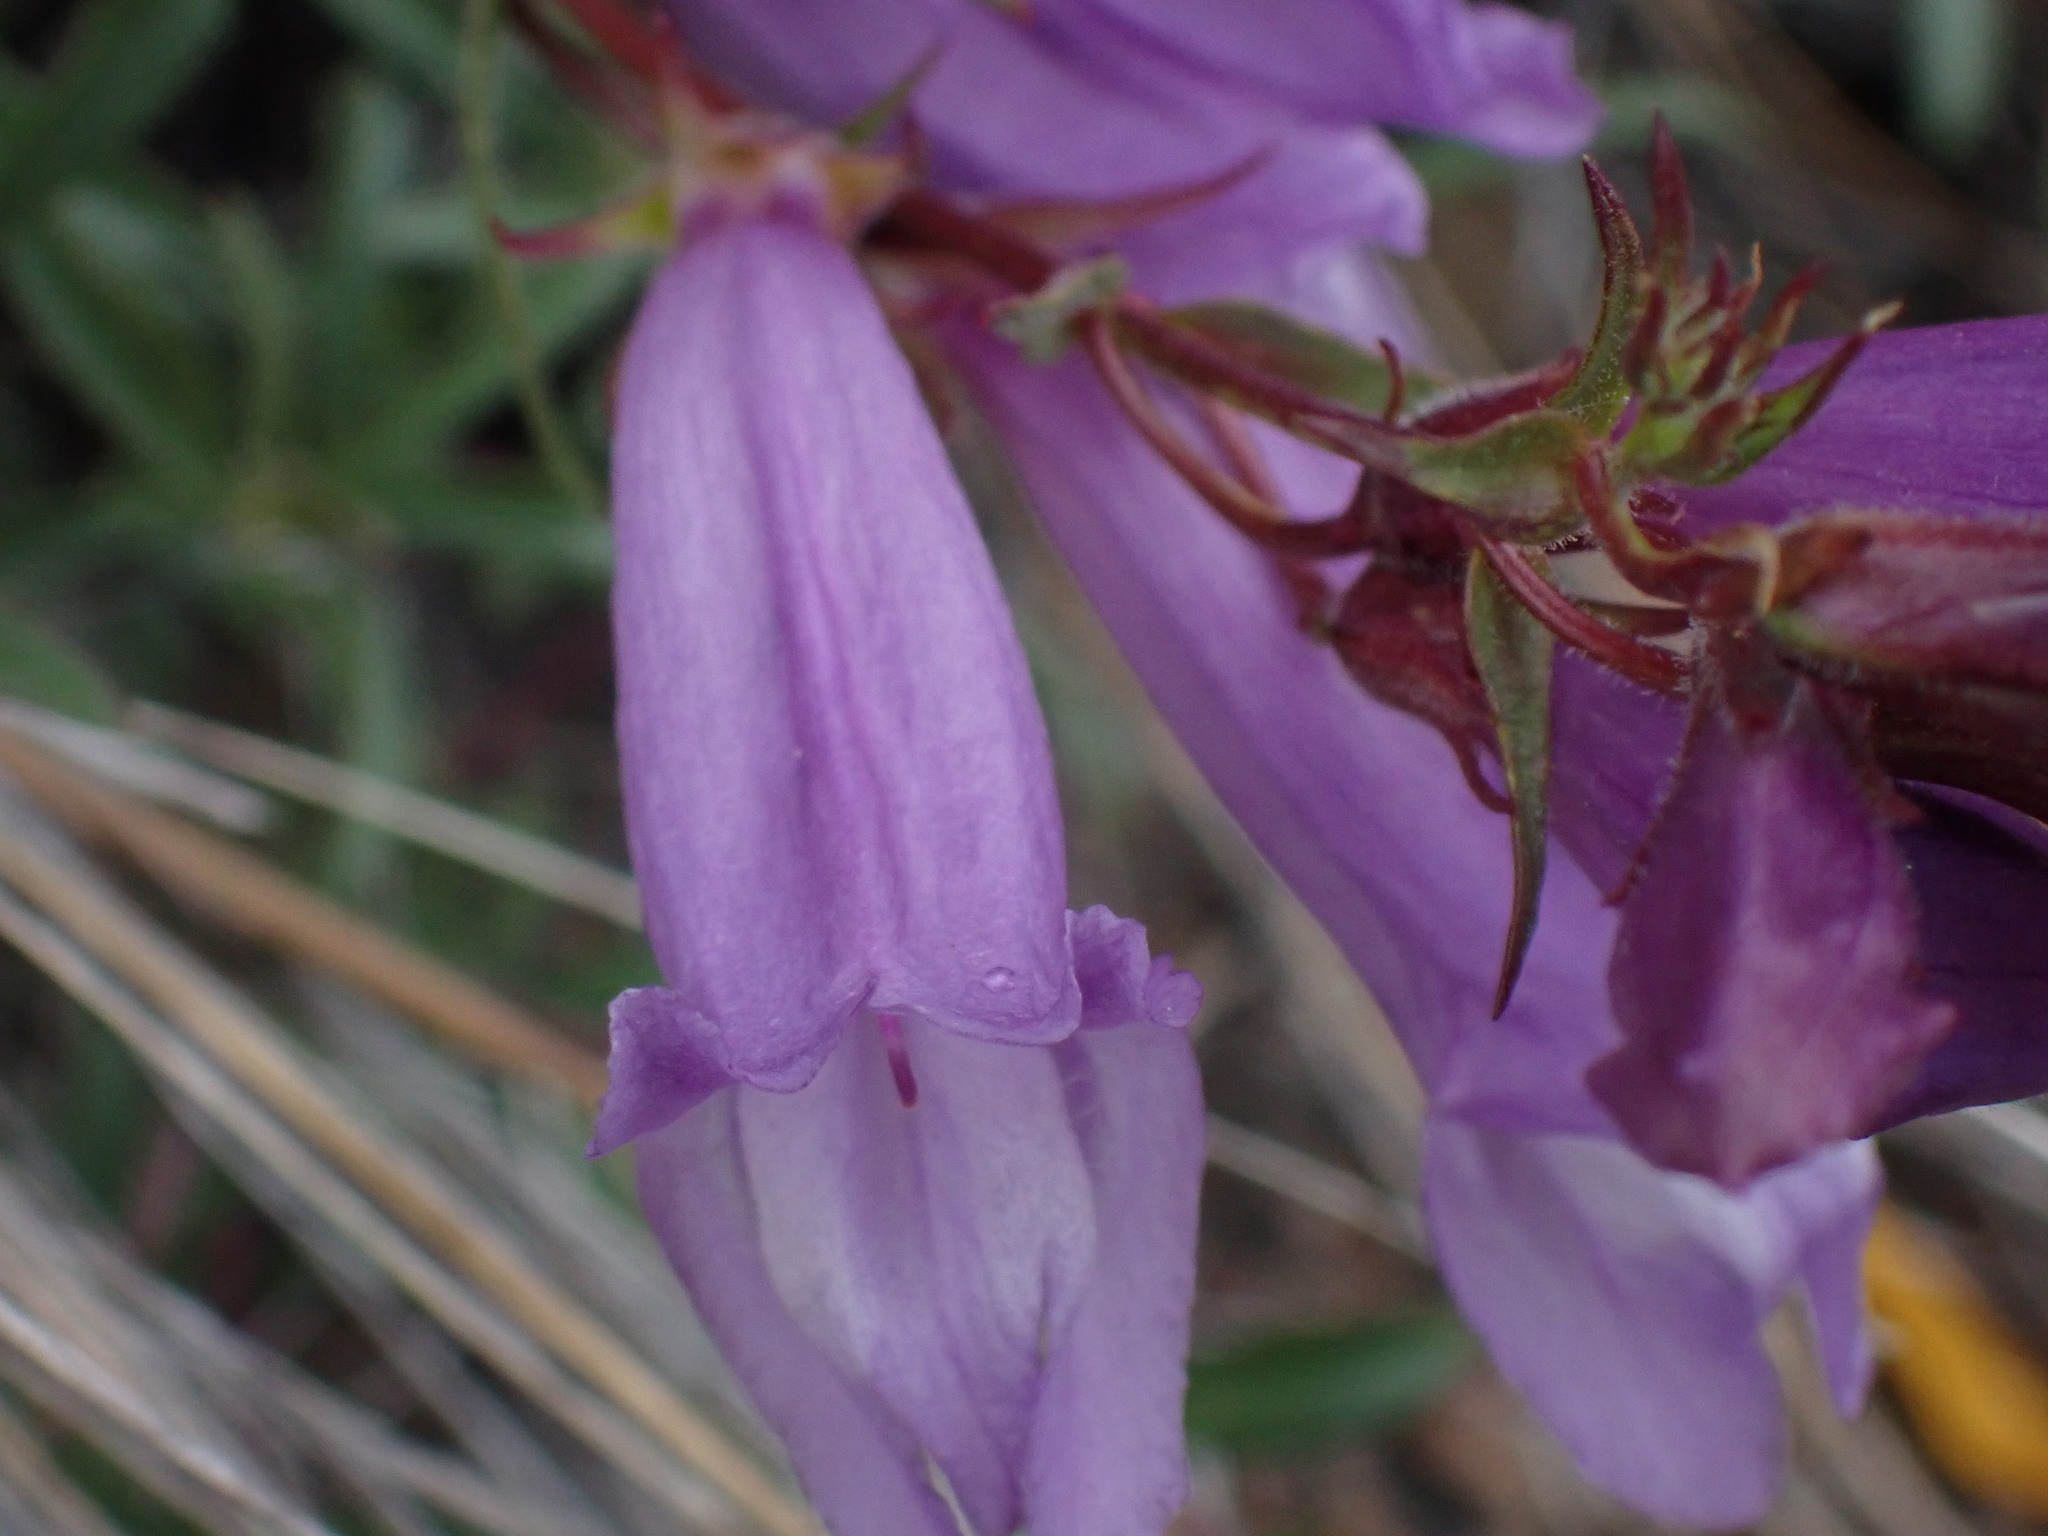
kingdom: Plantae
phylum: Tracheophyta
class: Magnoliopsida
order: Lamiales
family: Plantaginaceae
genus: Penstemon
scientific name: Penstemon fruticosus
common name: Bush penstemon
